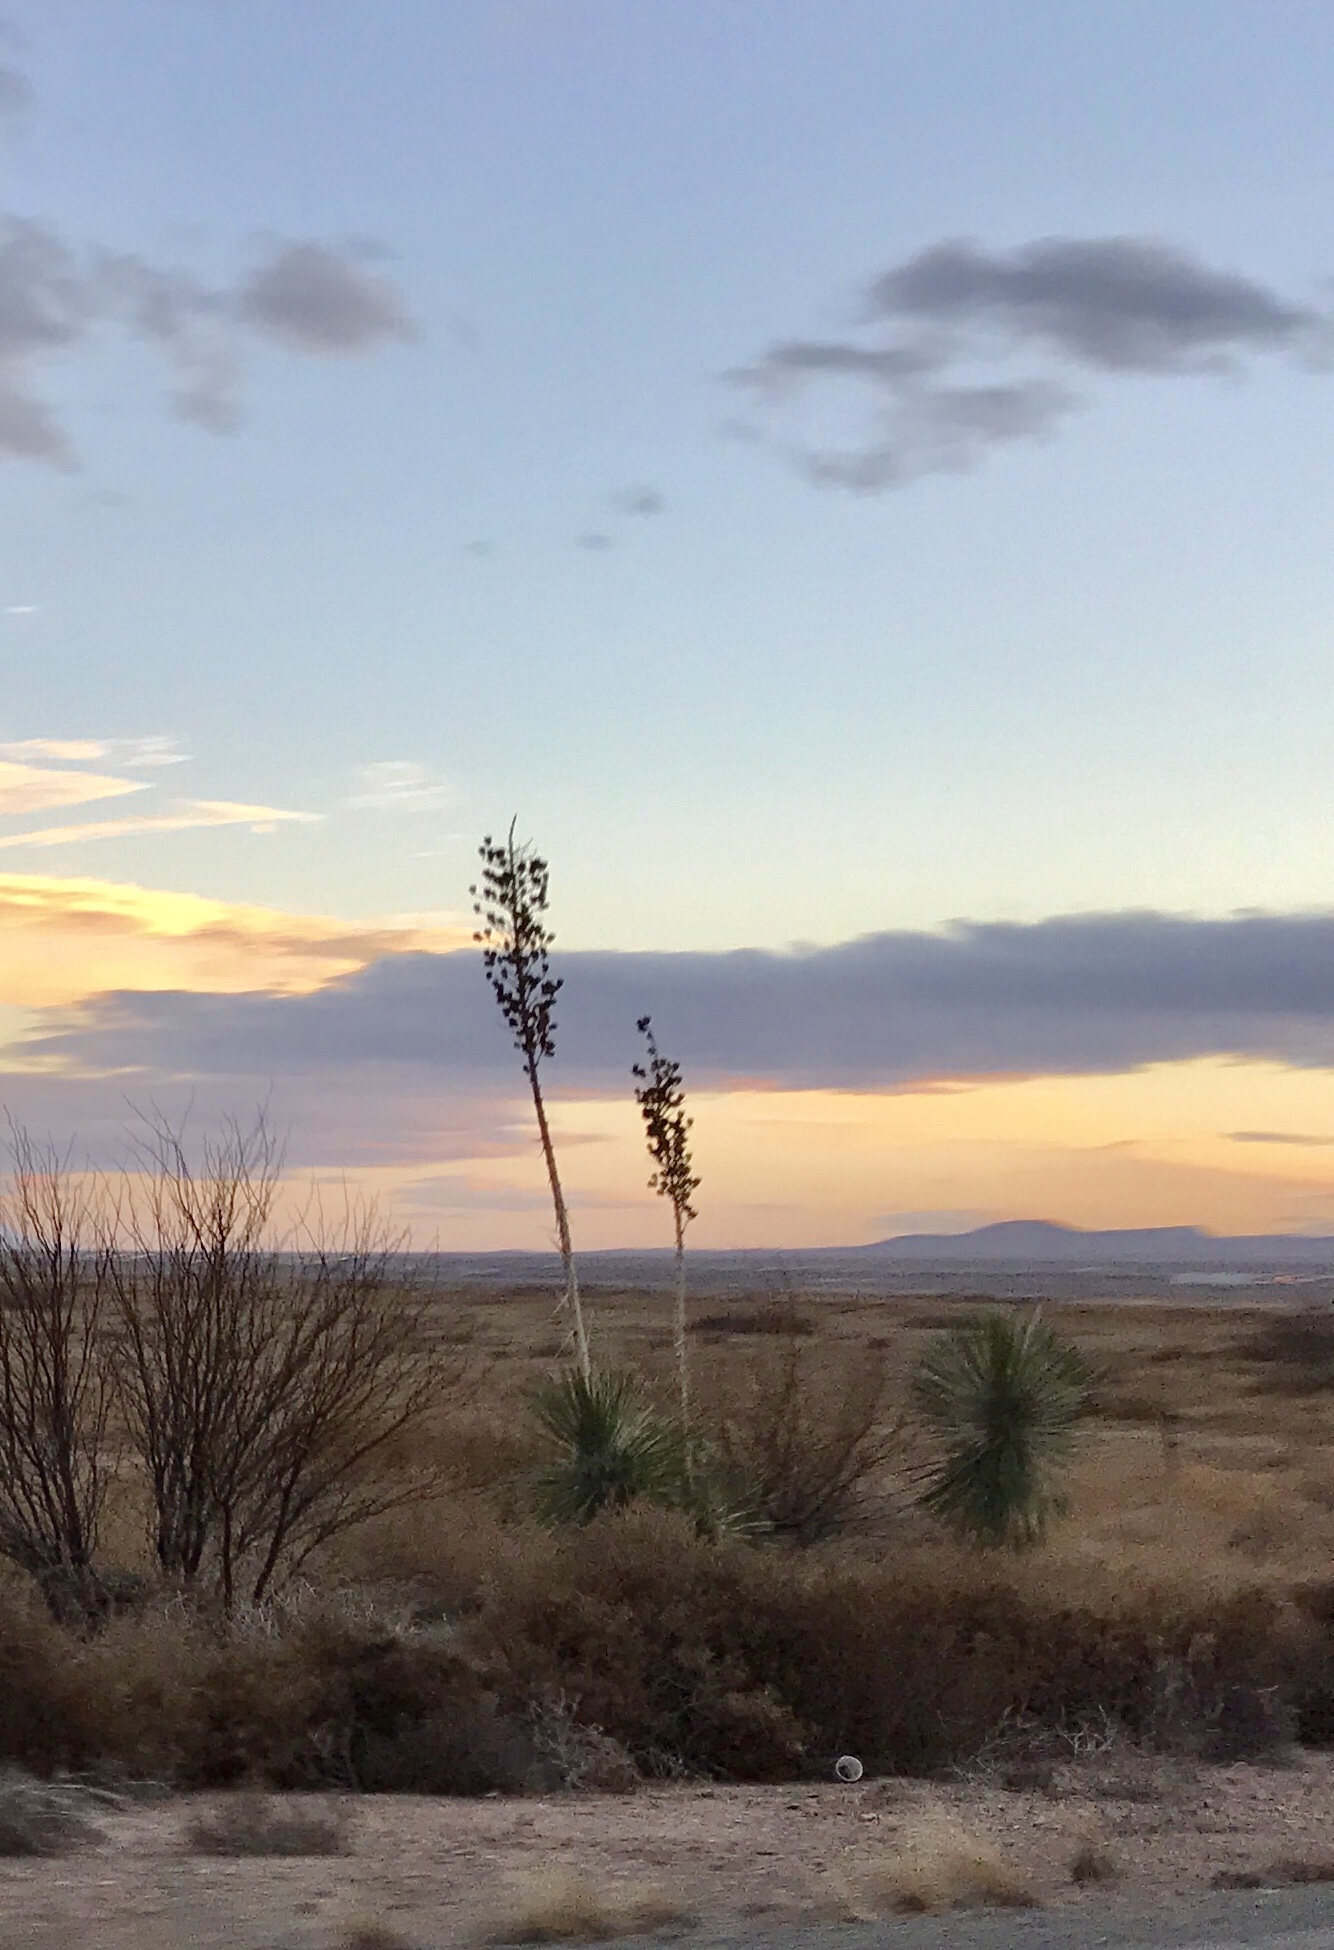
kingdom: Plantae
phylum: Tracheophyta
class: Liliopsida
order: Asparagales
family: Asparagaceae
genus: Yucca
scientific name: Yucca elata
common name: Palmella
